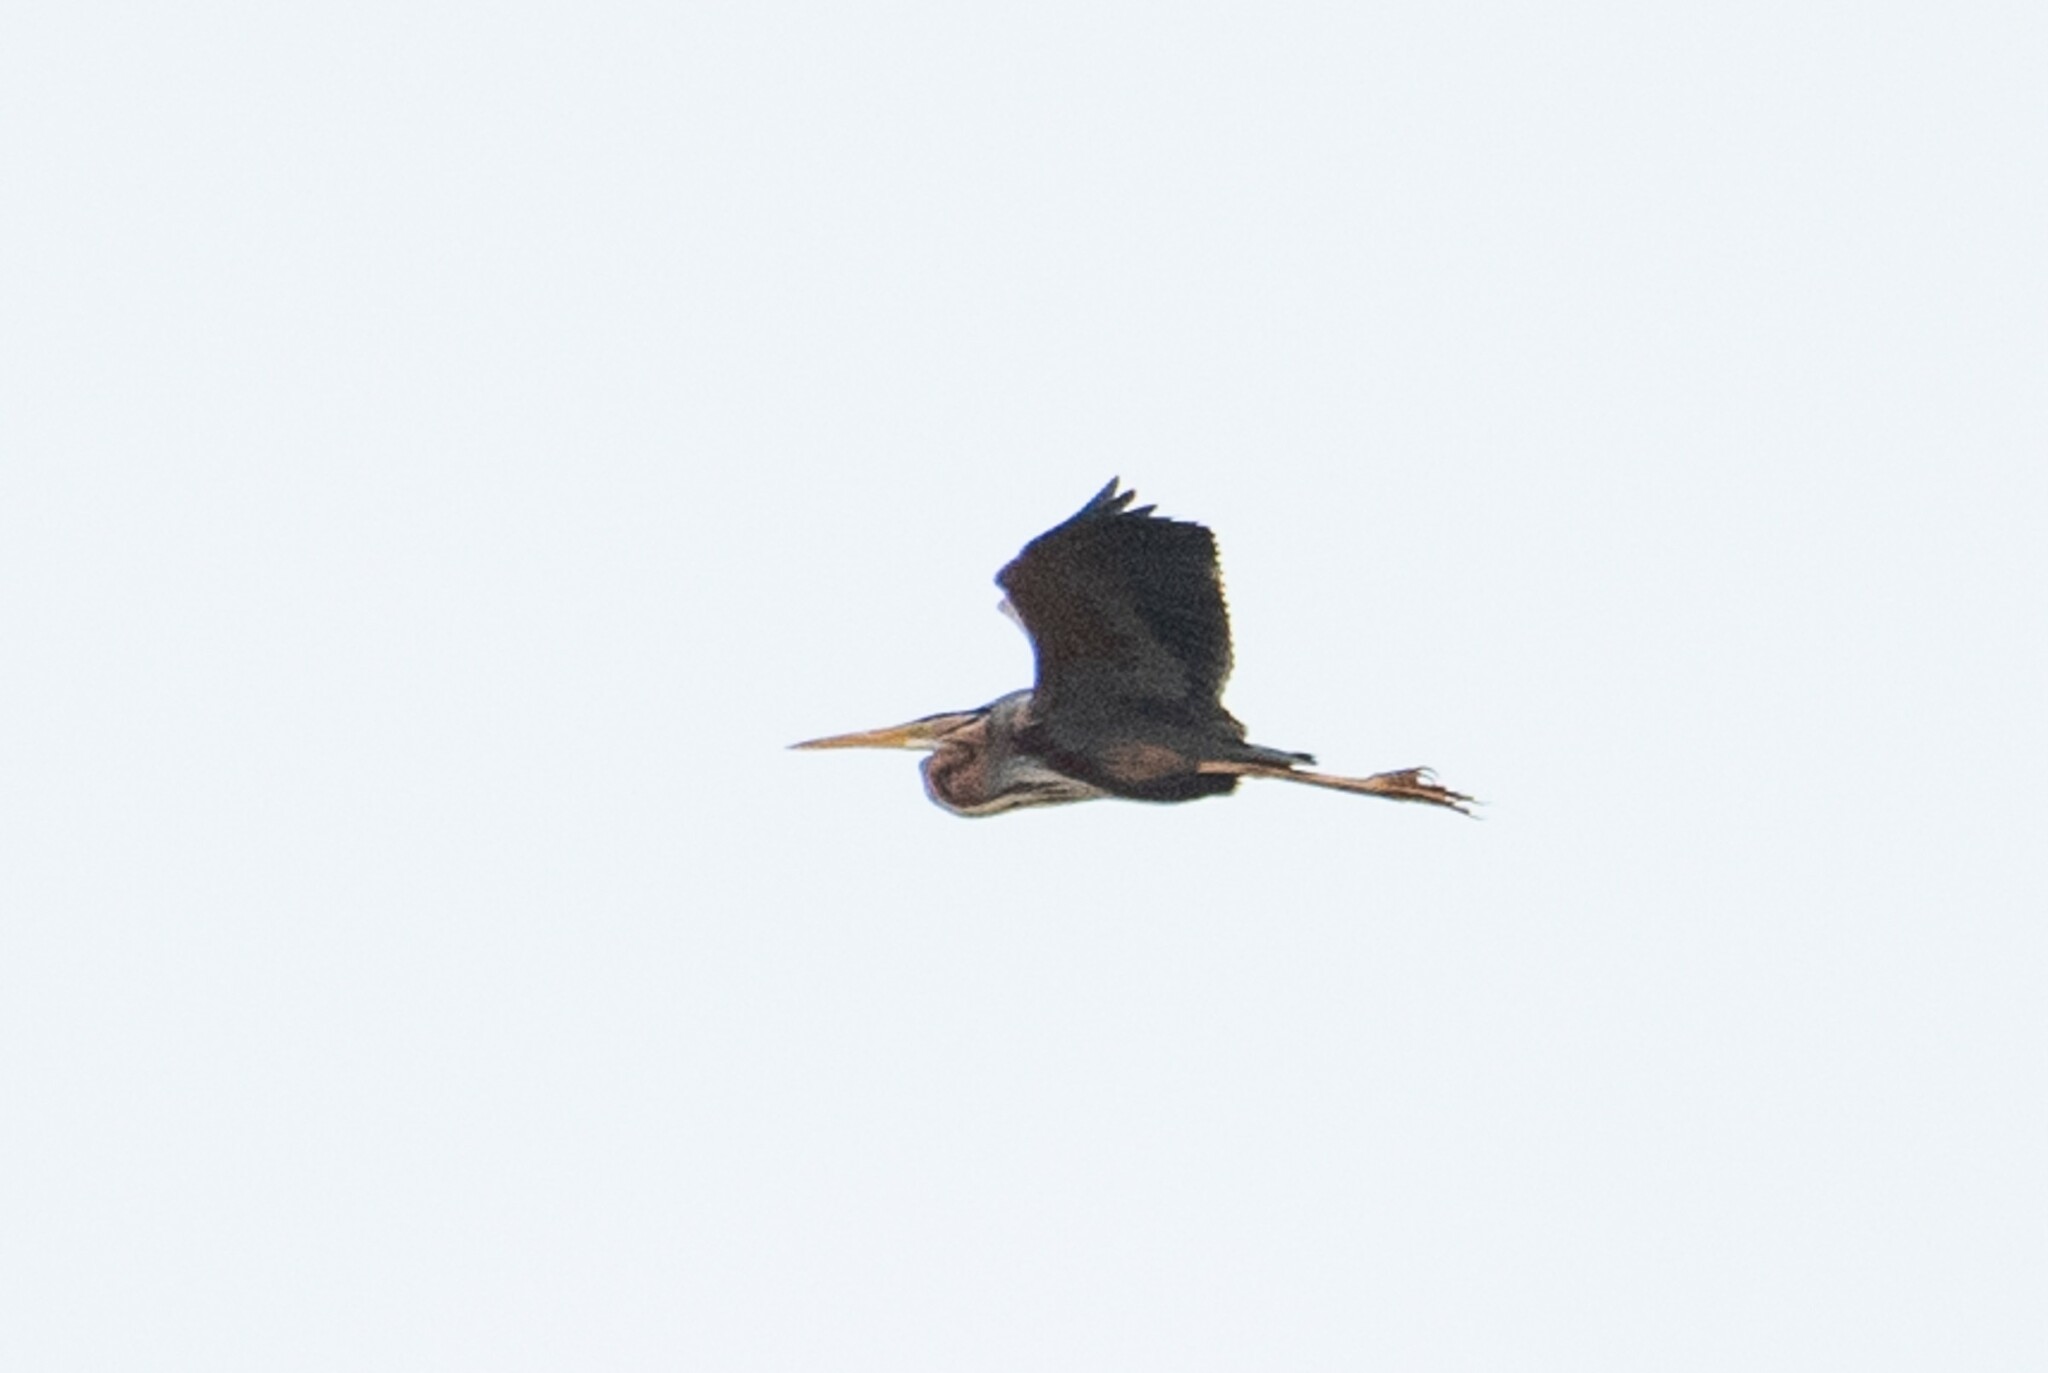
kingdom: Animalia
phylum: Chordata
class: Aves
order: Pelecaniformes
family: Ardeidae
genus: Ardea
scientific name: Ardea purpurea
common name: Purple heron
